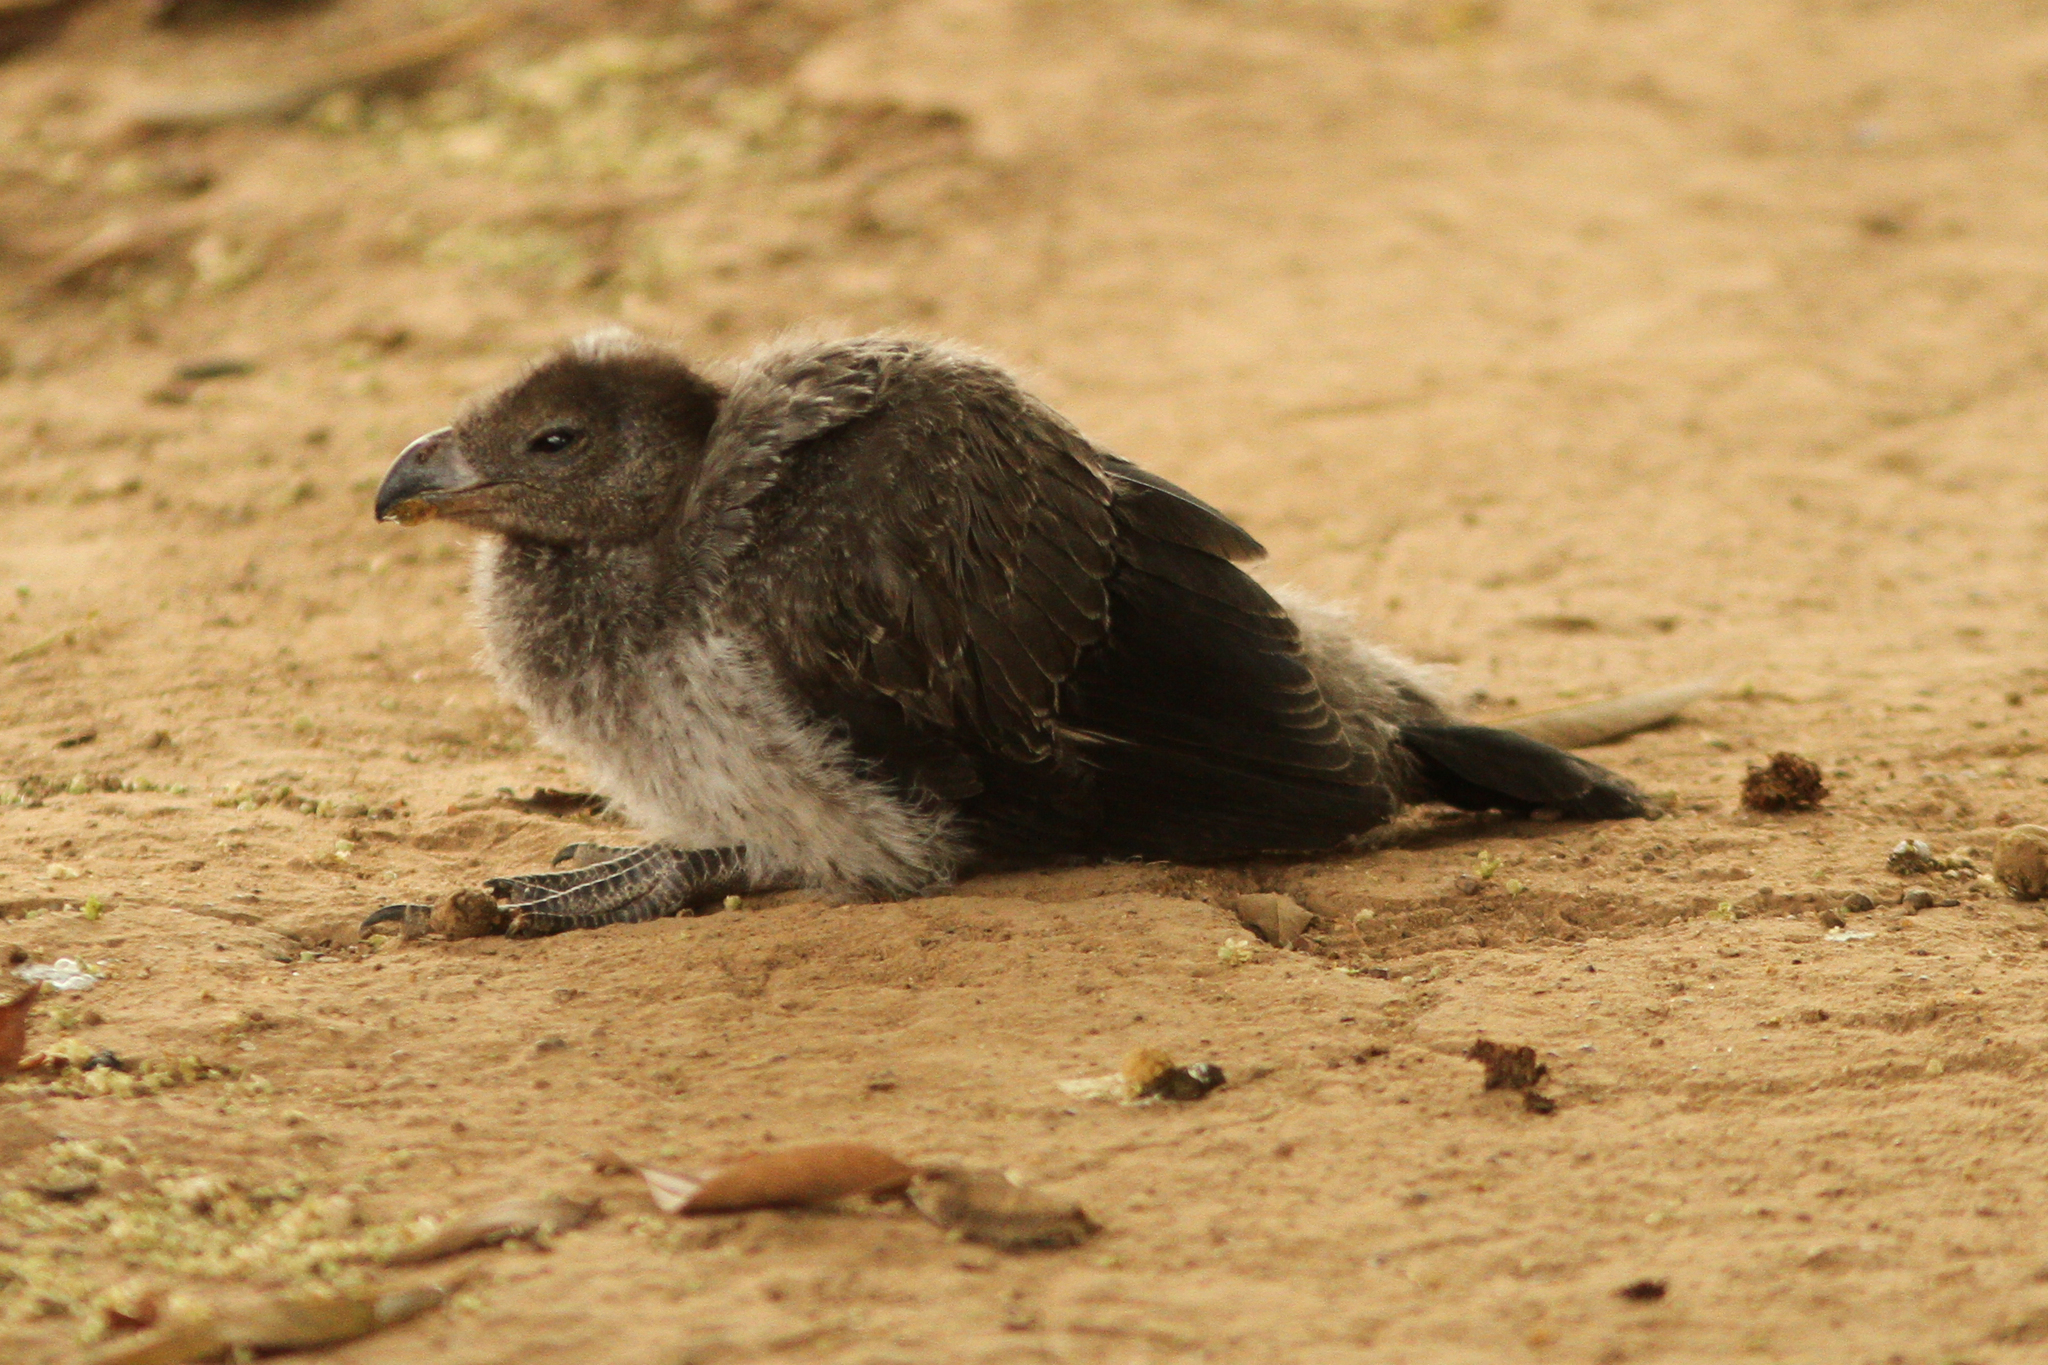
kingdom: Animalia
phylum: Chordata
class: Aves
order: Musophagiformes
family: Musophagidae
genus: Crinifer
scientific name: Crinifer piscator
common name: Western plantain-eater
